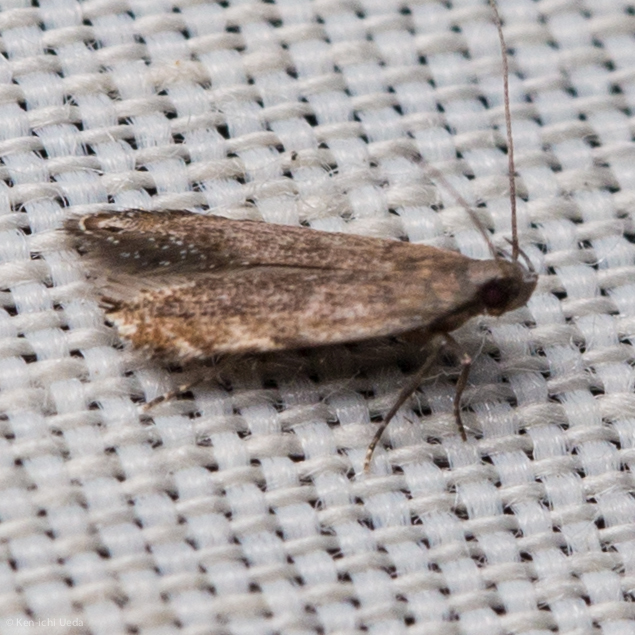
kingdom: Animalia
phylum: Arthropoda
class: Insecta
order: Lepidoptera
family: Gelechiidae
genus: Battaristis
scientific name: Battaristis concinnusella
